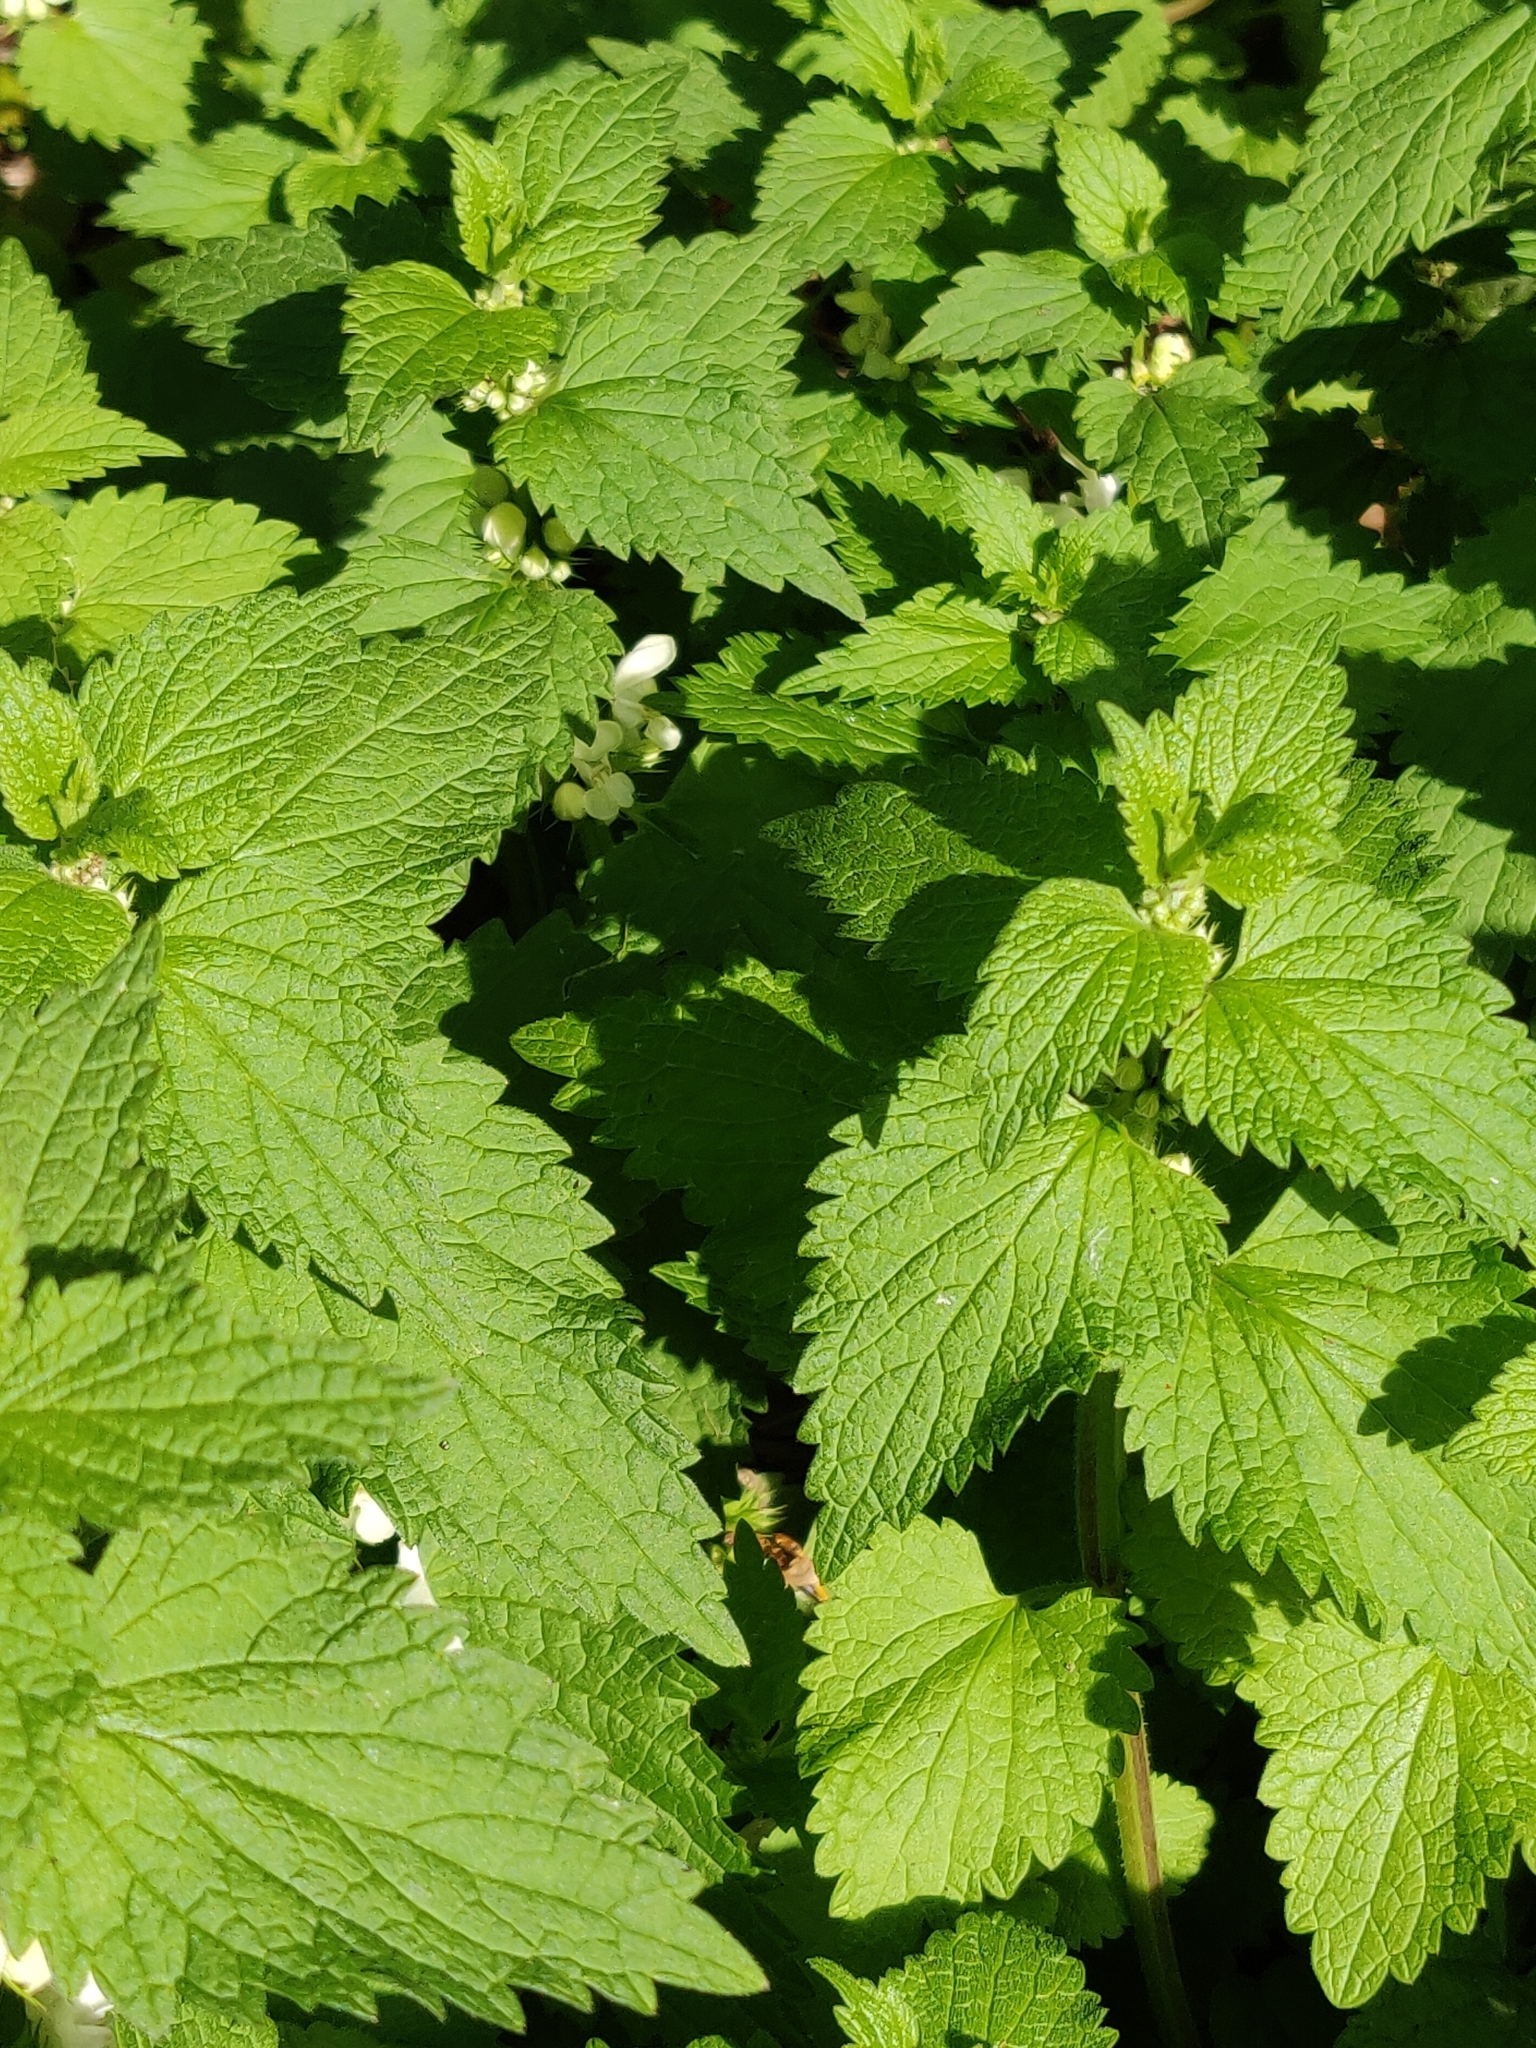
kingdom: Plantae
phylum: Tracheophyta
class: Magnoliopsida
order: Lamiales
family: Lamiaceae
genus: Lamium
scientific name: Lamium album
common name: White dead-nettle
